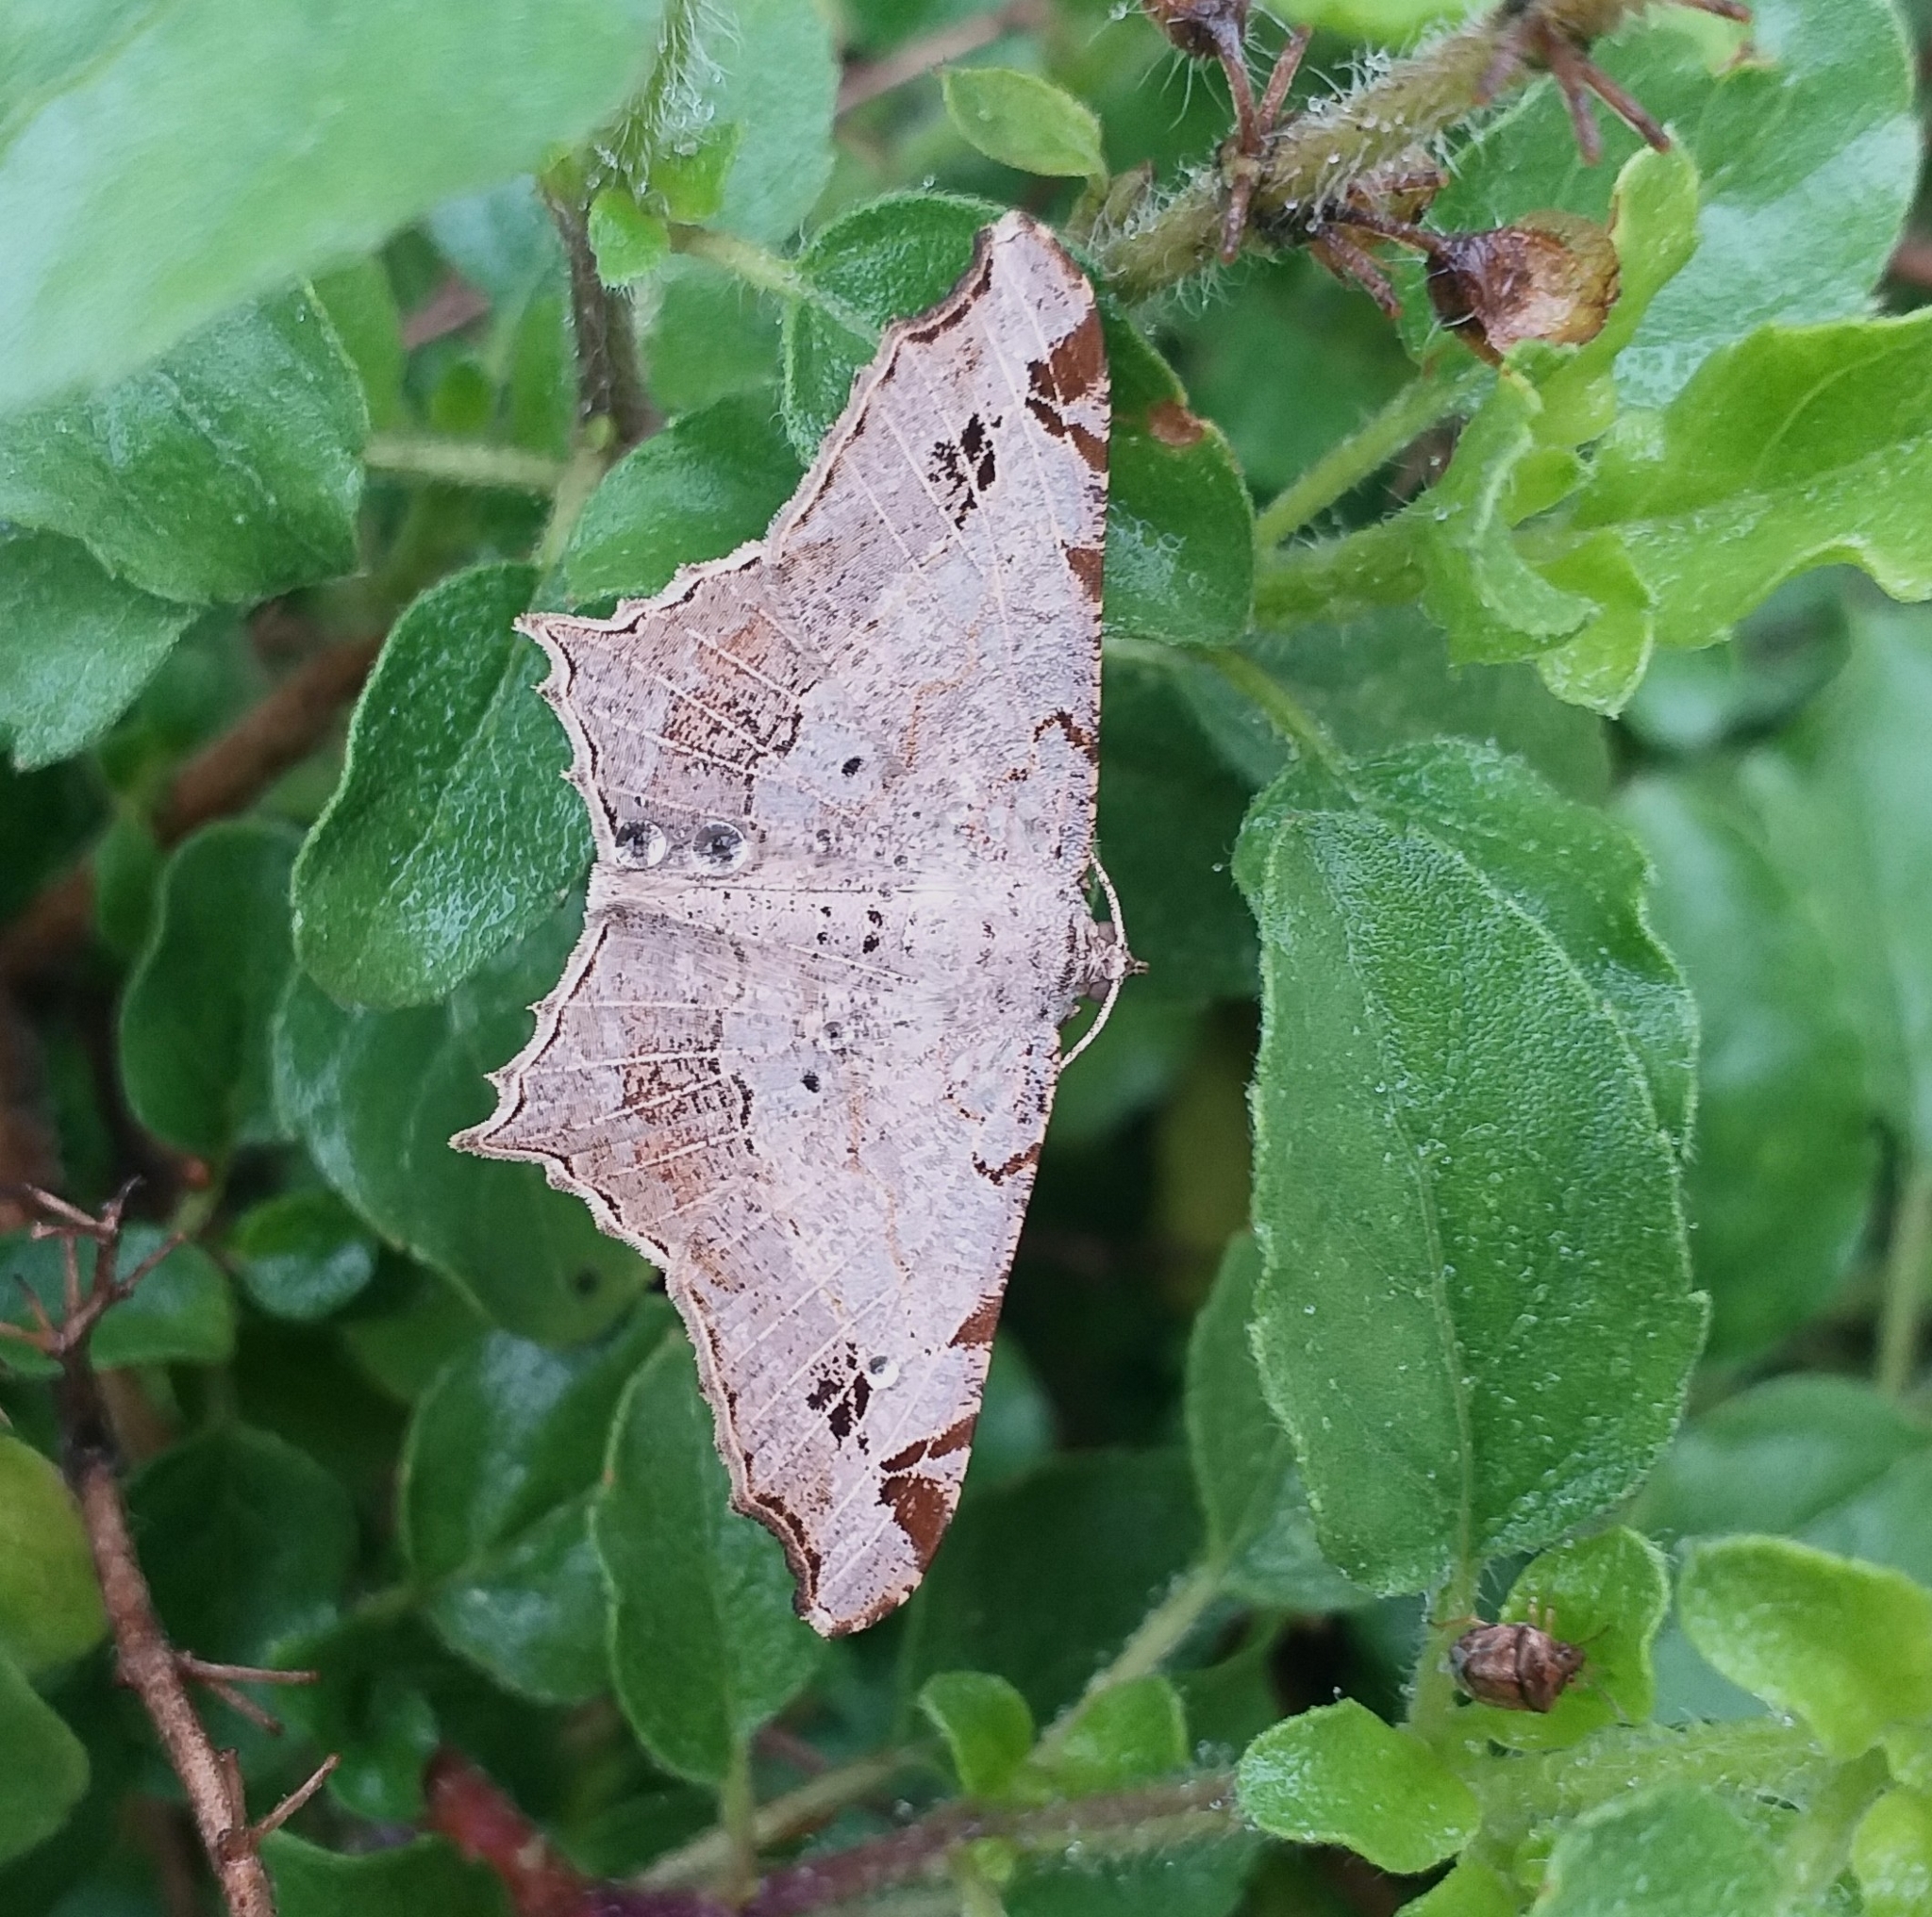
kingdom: Animalia
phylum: Arthropoda
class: Insecta
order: Lepidoptera
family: Geometridae
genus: Chiasmia
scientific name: Chiasmia emersaria
